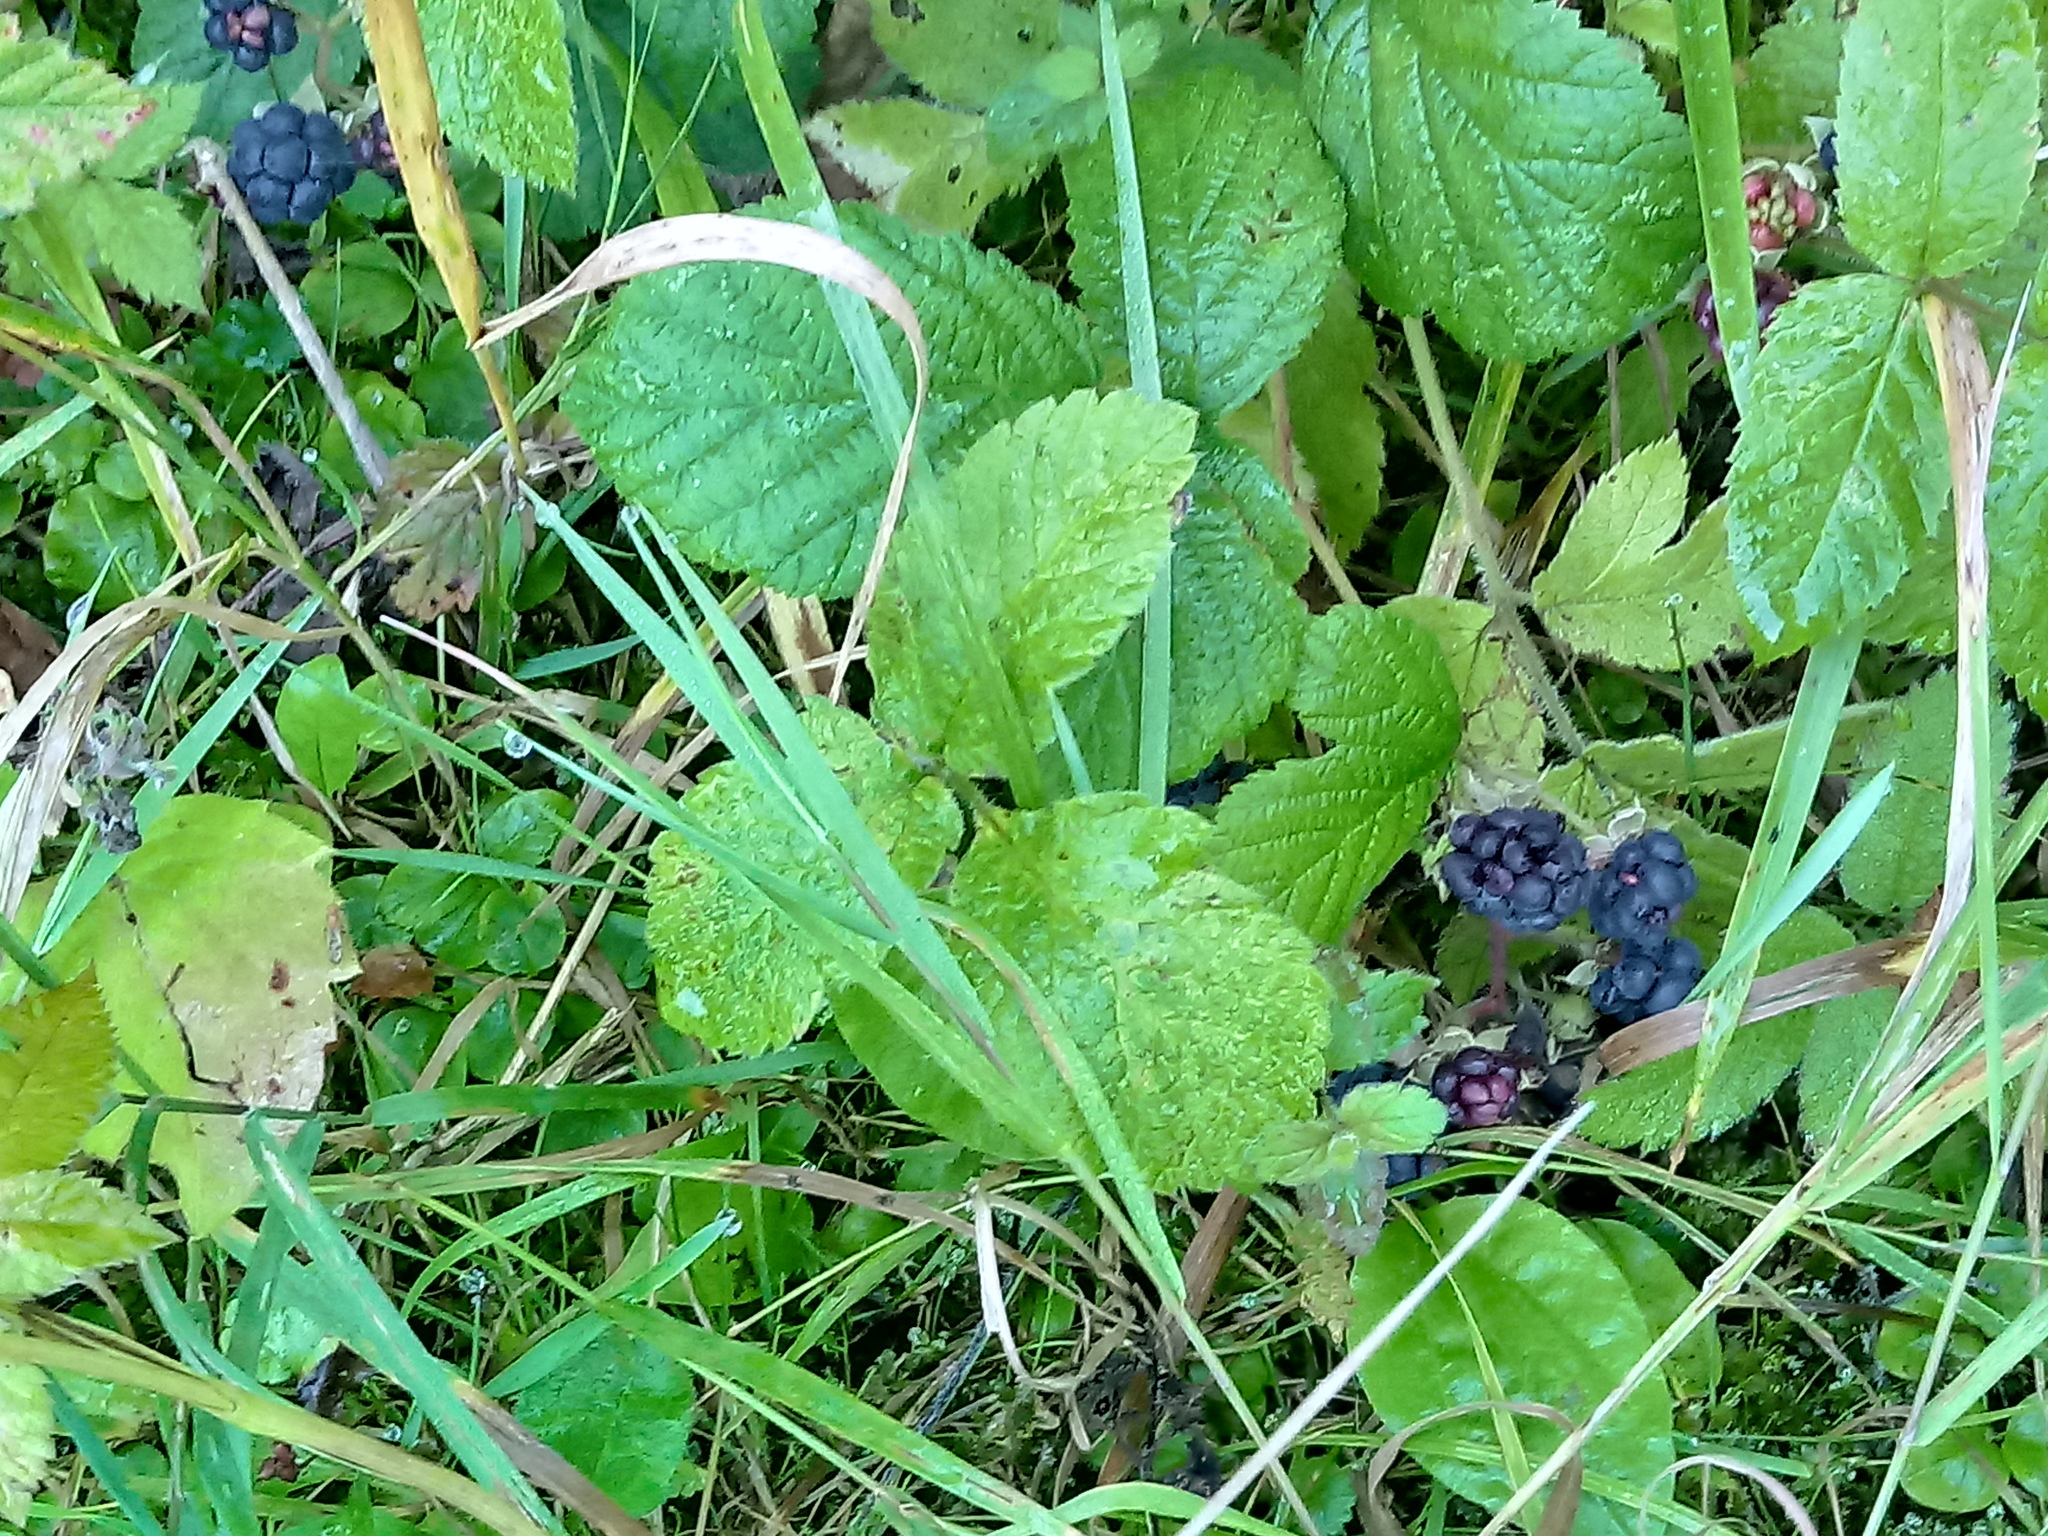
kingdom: Plantae
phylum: Tracheophyta
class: Magnoliopsida
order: Rosales
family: Rosaceae
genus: Rubus
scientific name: Rubus caesius
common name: Dewberry
